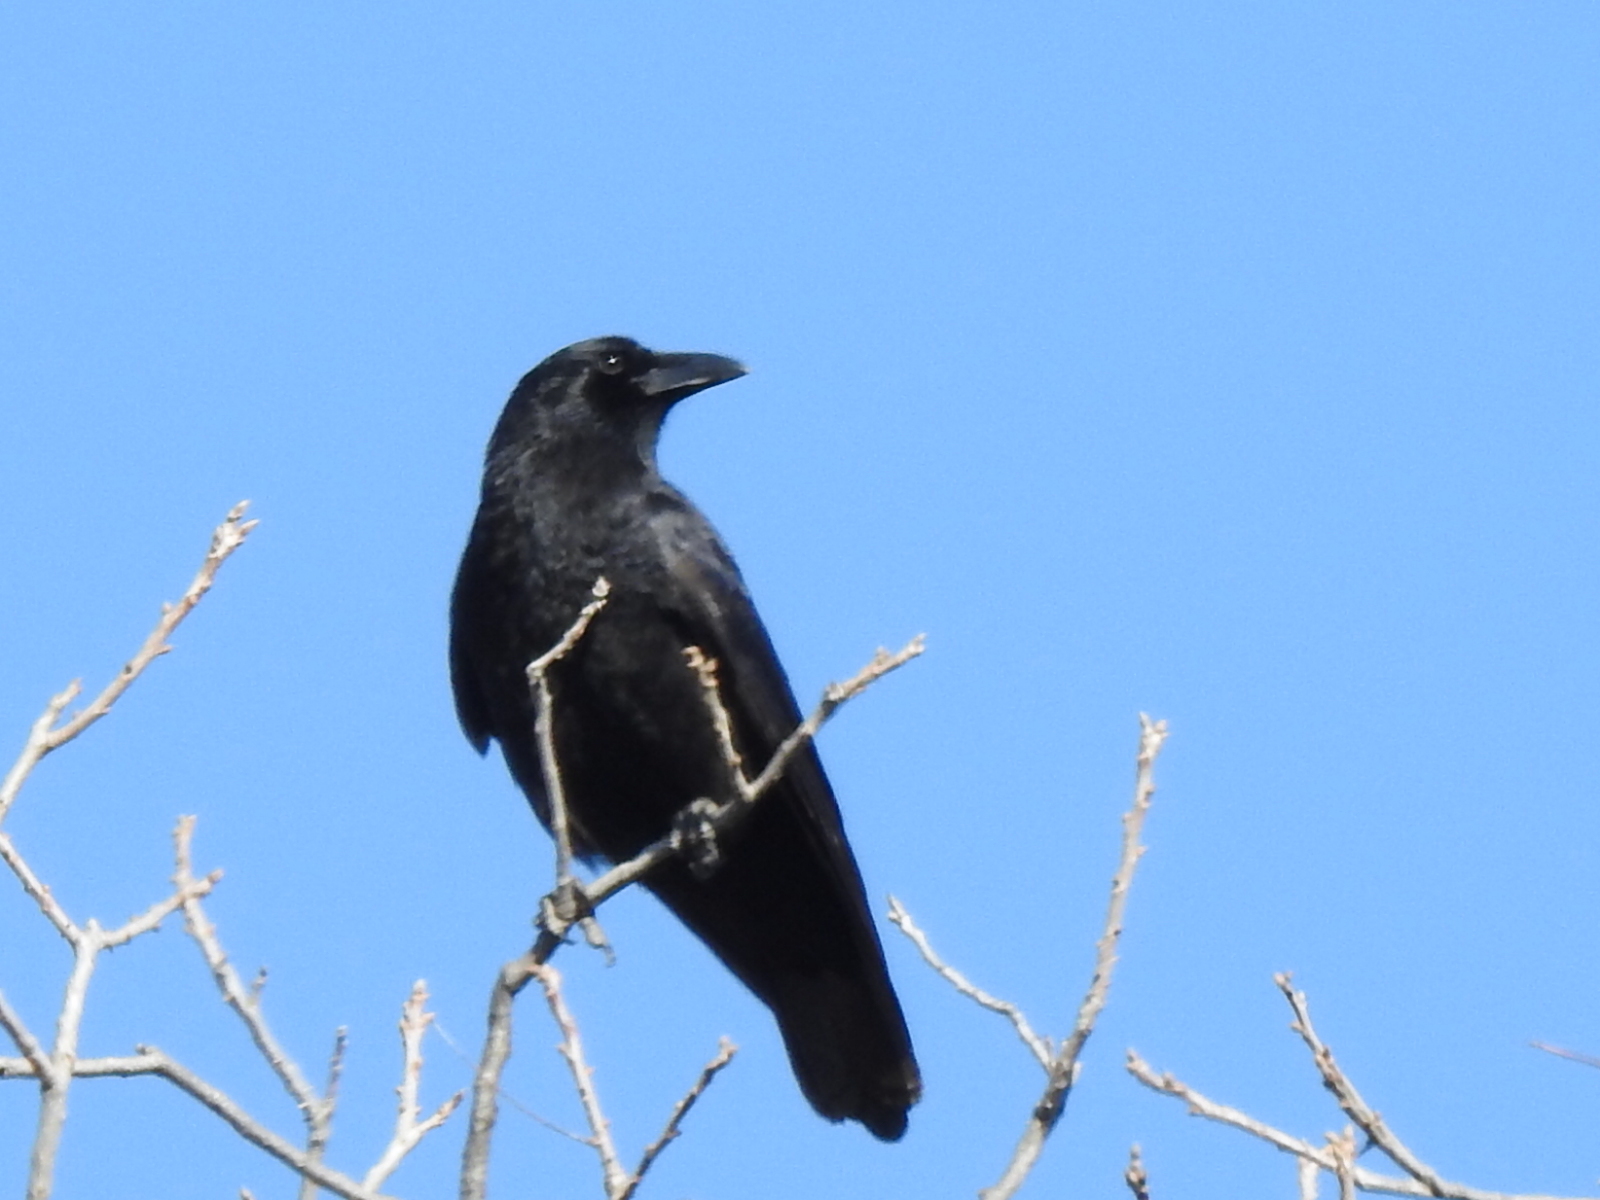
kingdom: Animalia
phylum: Chordata
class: Aves
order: Passeriformes
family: Corvidae
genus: Corvus
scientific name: Corvus brachyrhynchos
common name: American crow
